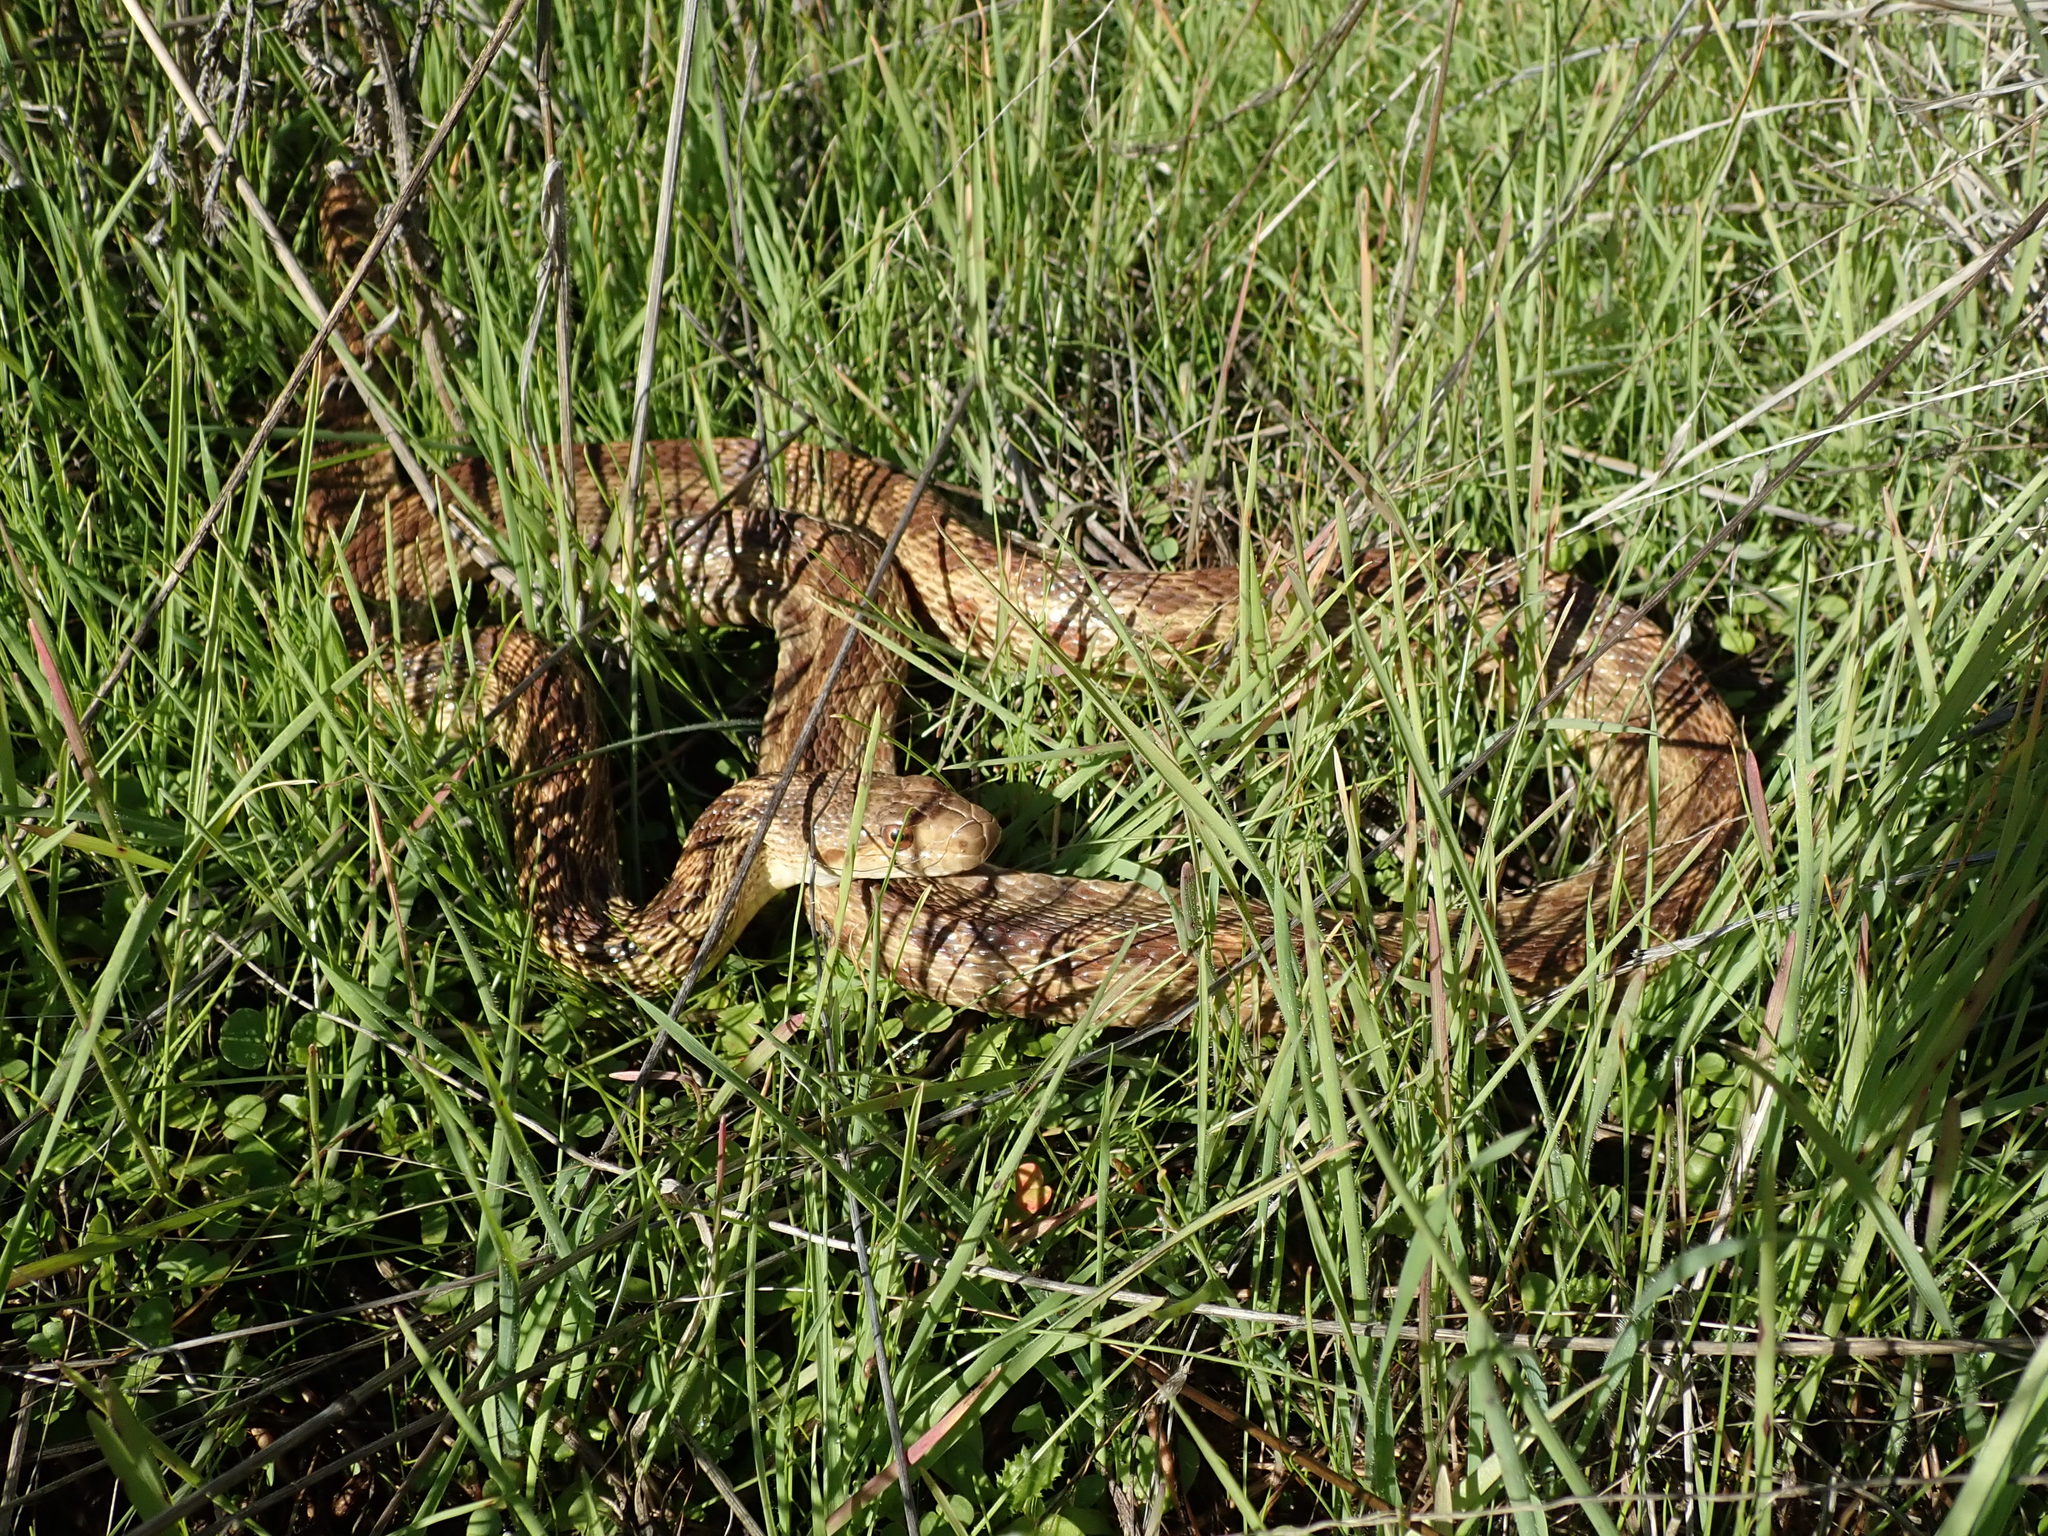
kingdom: Animalia
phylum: Chordata
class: Squamata
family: Colubridae
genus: Pituophis
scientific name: Pituophis catenifer
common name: Gopher snake
